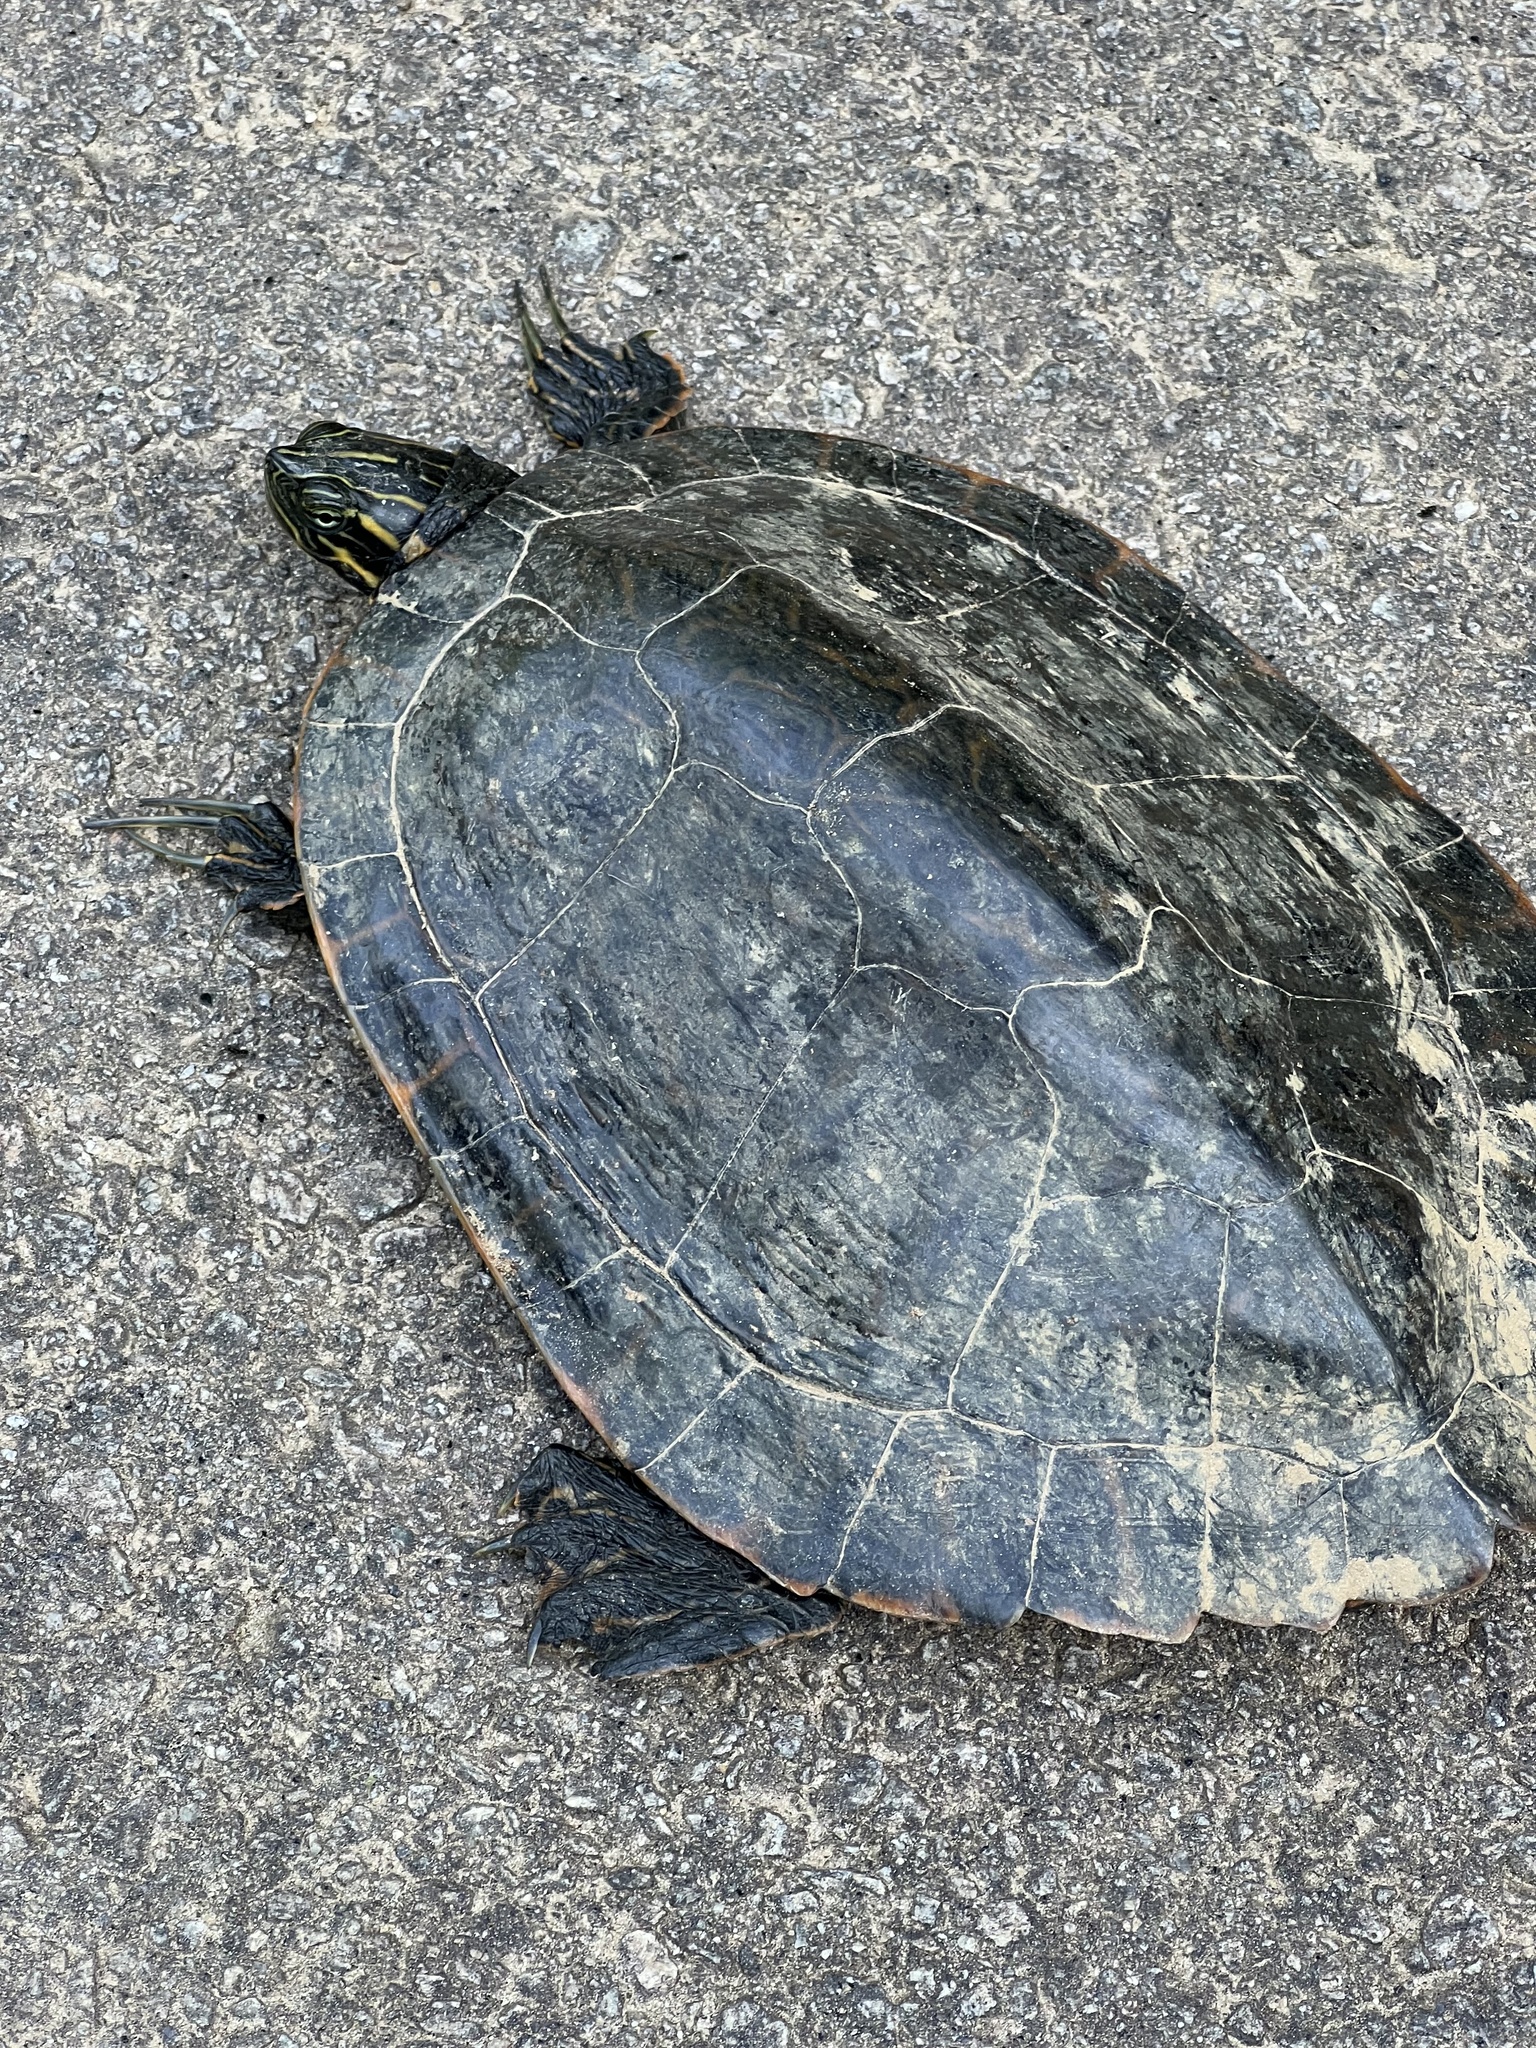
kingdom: Animalia
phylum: Chordata
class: Testudines
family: Emydidae
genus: Pseudemys
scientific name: Pseudemys concinna
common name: Eastern river cooter
